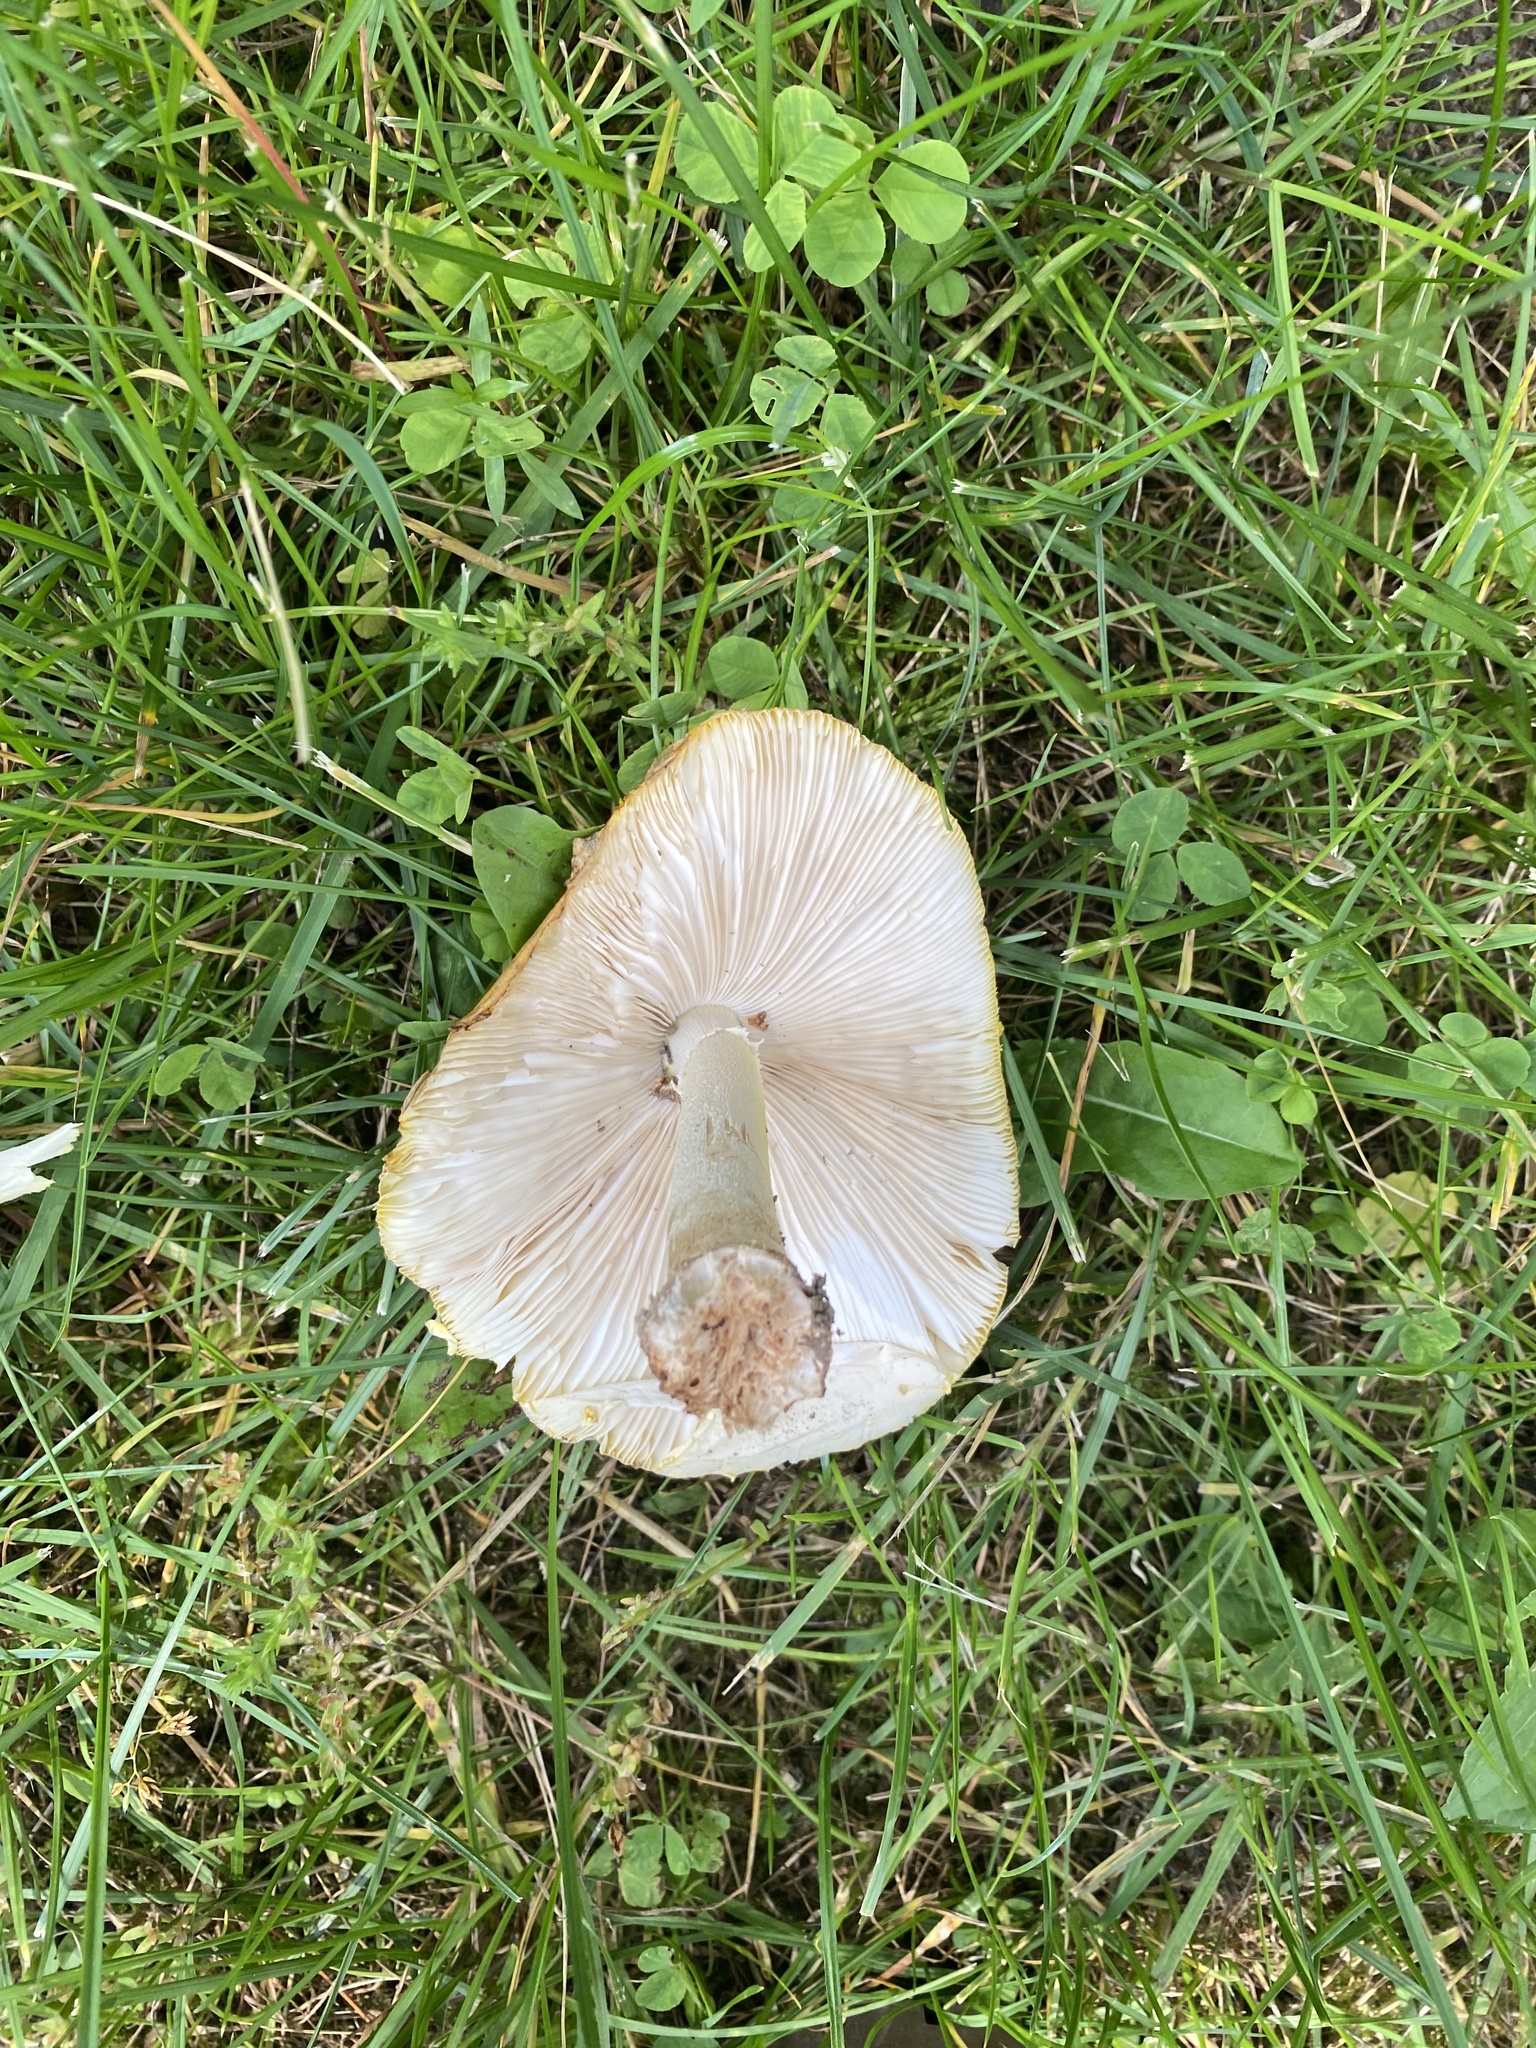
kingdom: Fungi
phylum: Basidiomycota
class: Agaricomycetes
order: Agaricales
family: Amanitaceae
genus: Amanita
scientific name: Amanita flavorubens
